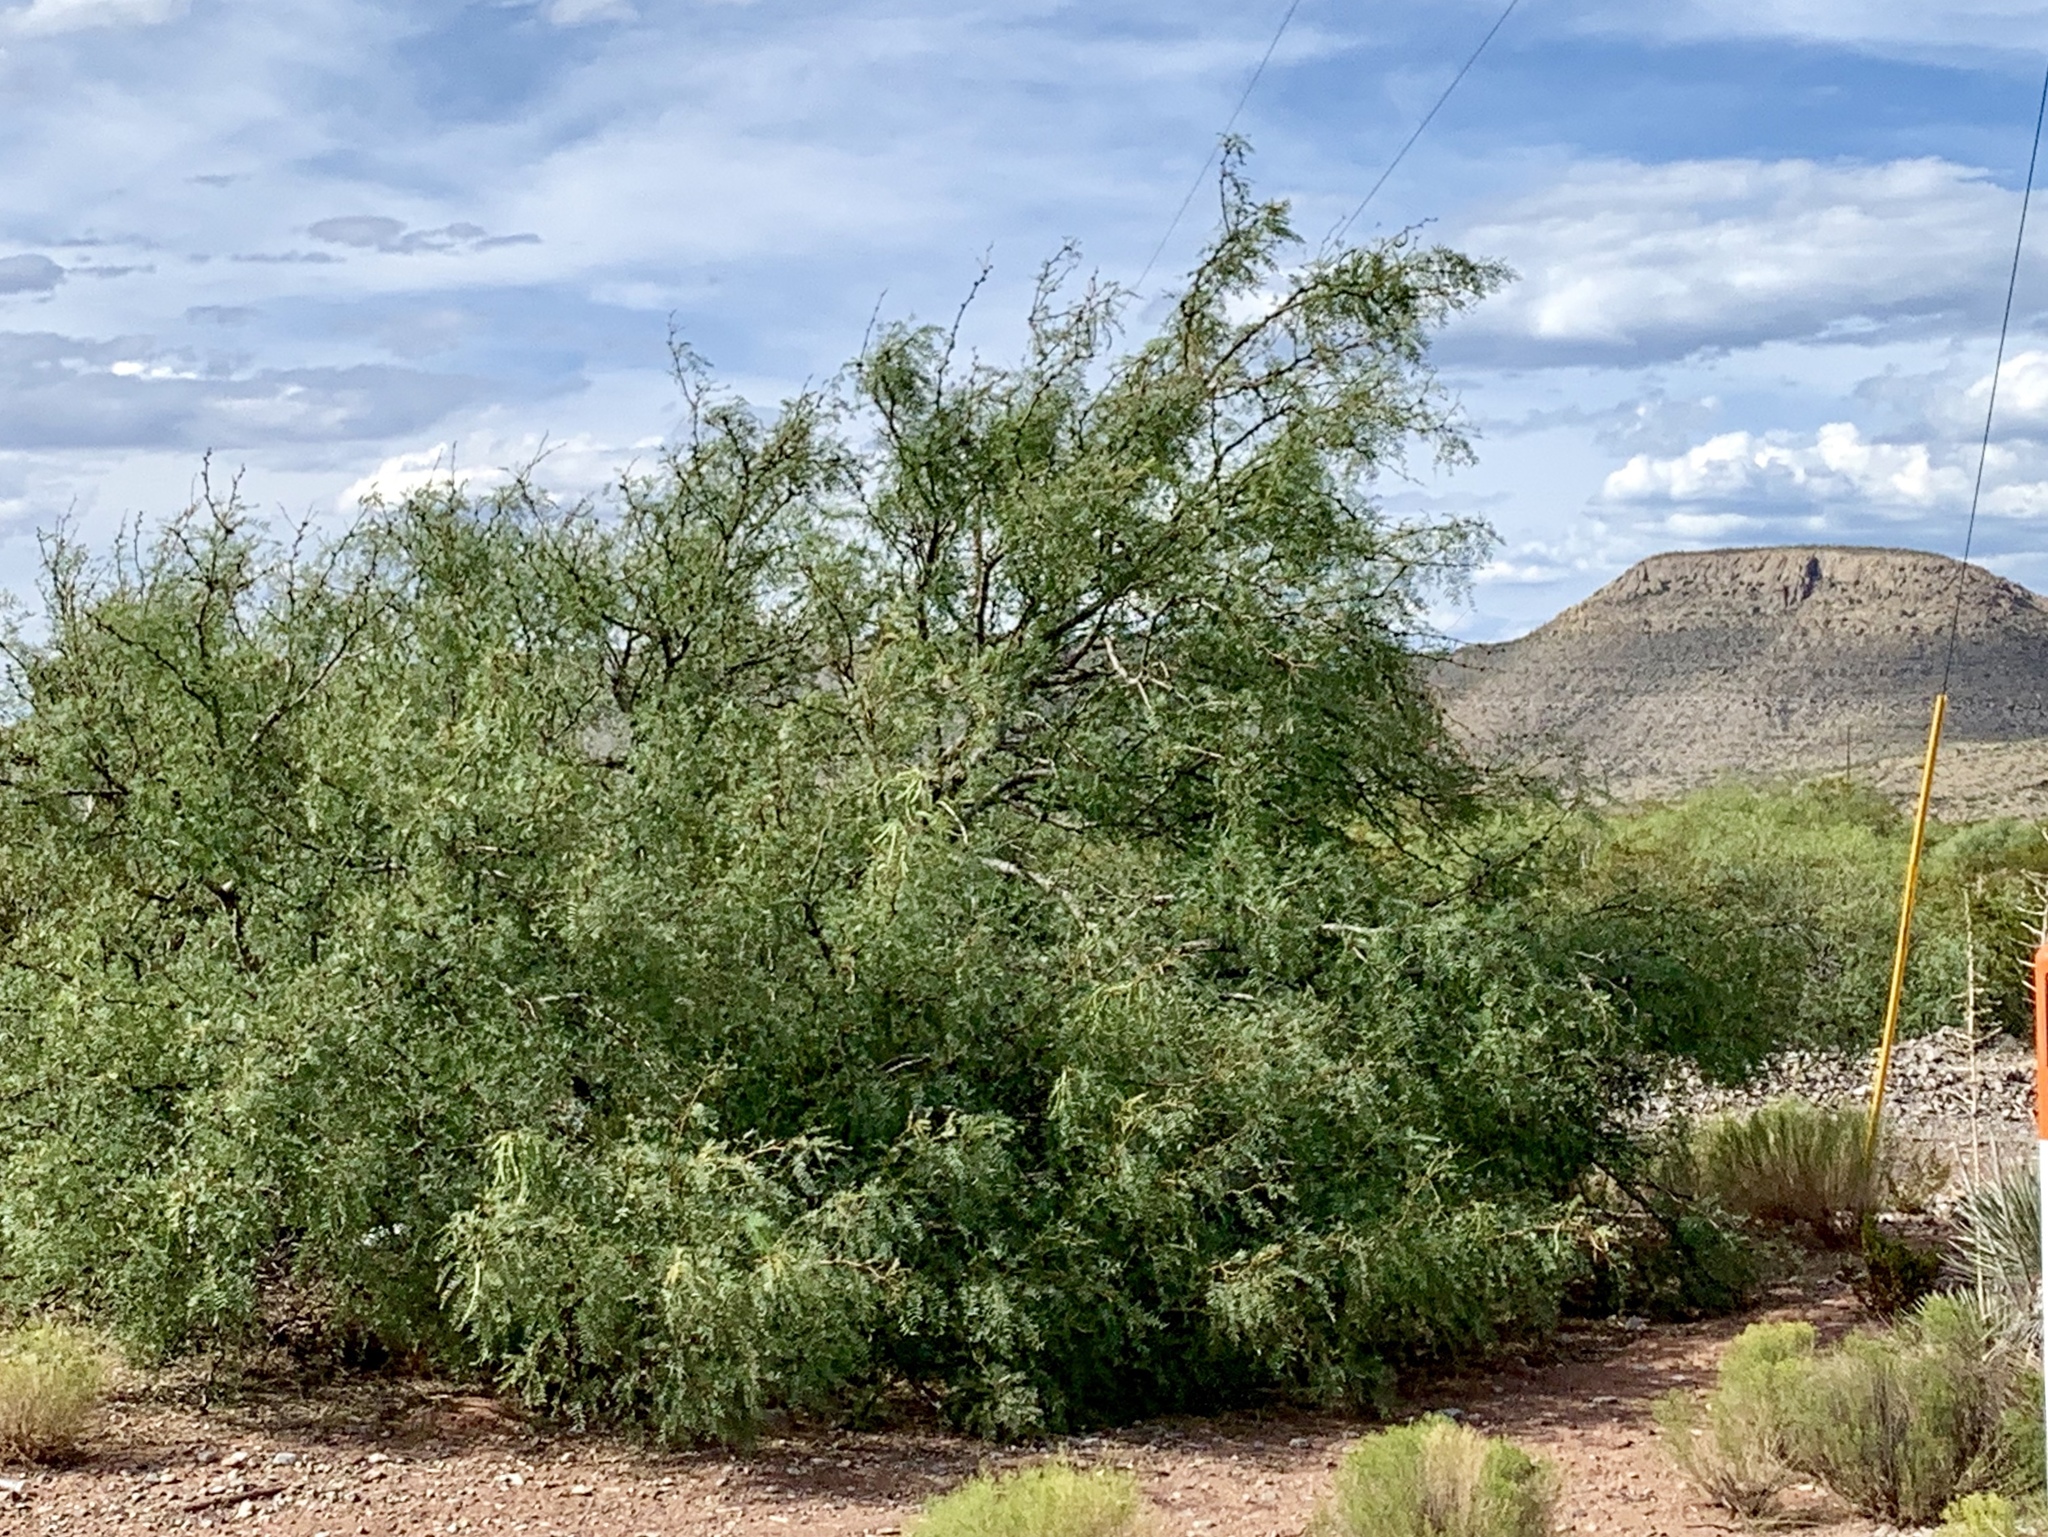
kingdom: Plantae
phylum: Tracheophyta
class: Magnoliopsida
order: Fabales
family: Fabaceae
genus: Prosopis
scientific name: Prosopis glandulosa
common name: Honey mesquite
